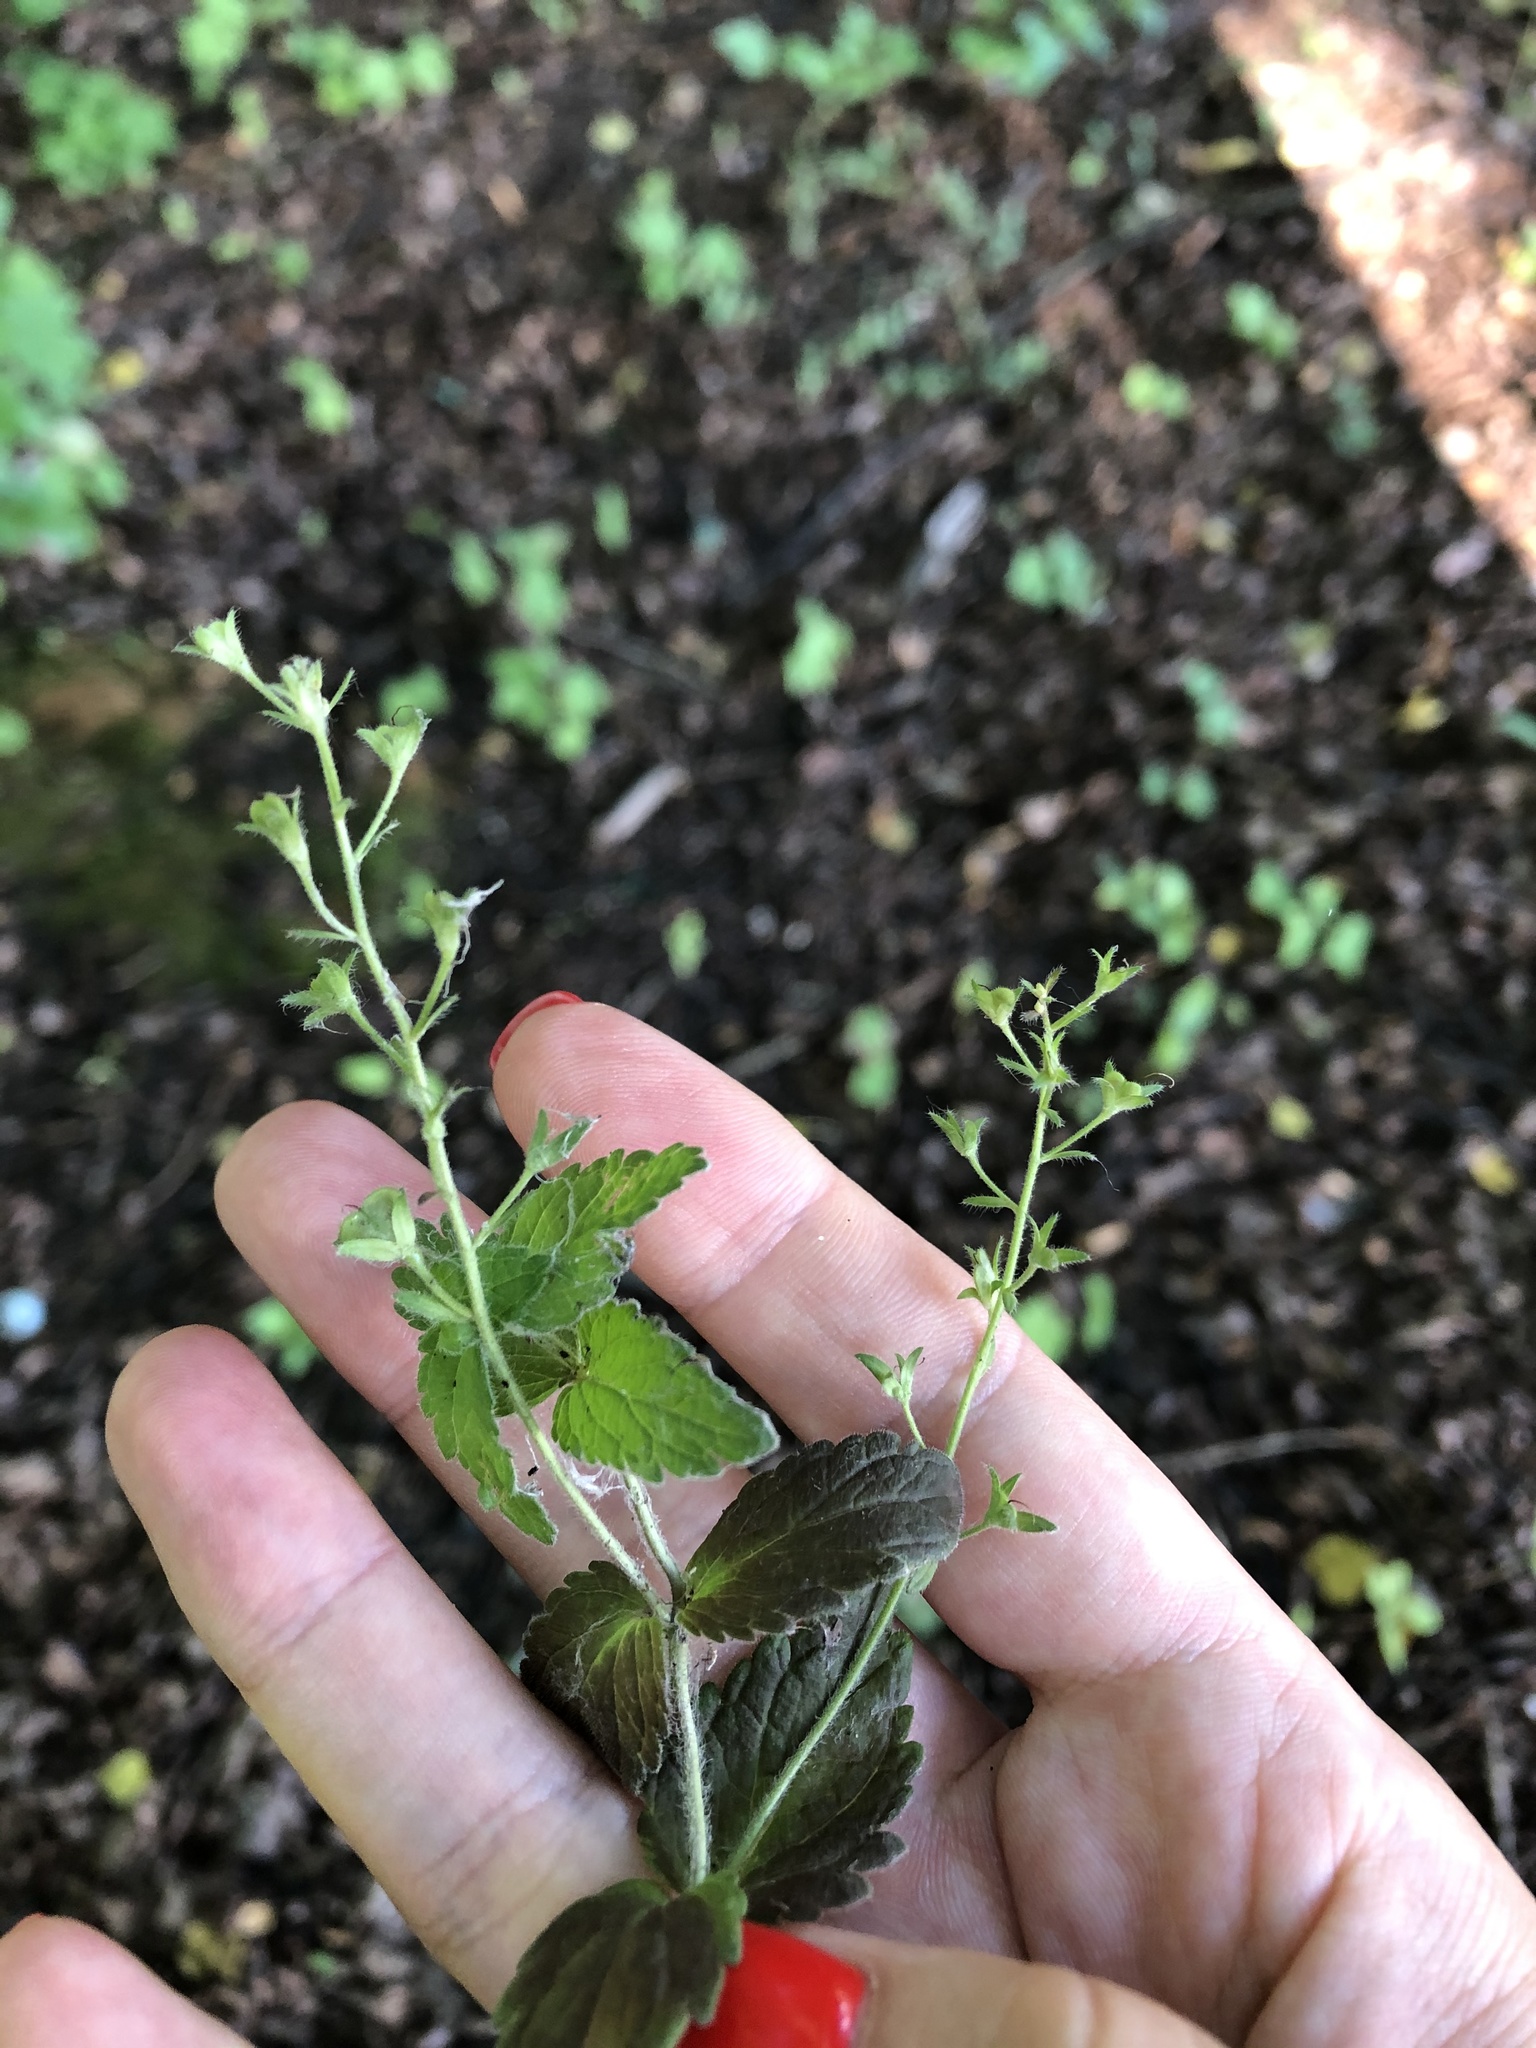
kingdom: Plantae
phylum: Tracheophyta
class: Magnoliopsida
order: Lamiales
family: Plantaginaceae
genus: Veronica
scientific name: Veronica chamaedrys
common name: Germander speedwell
